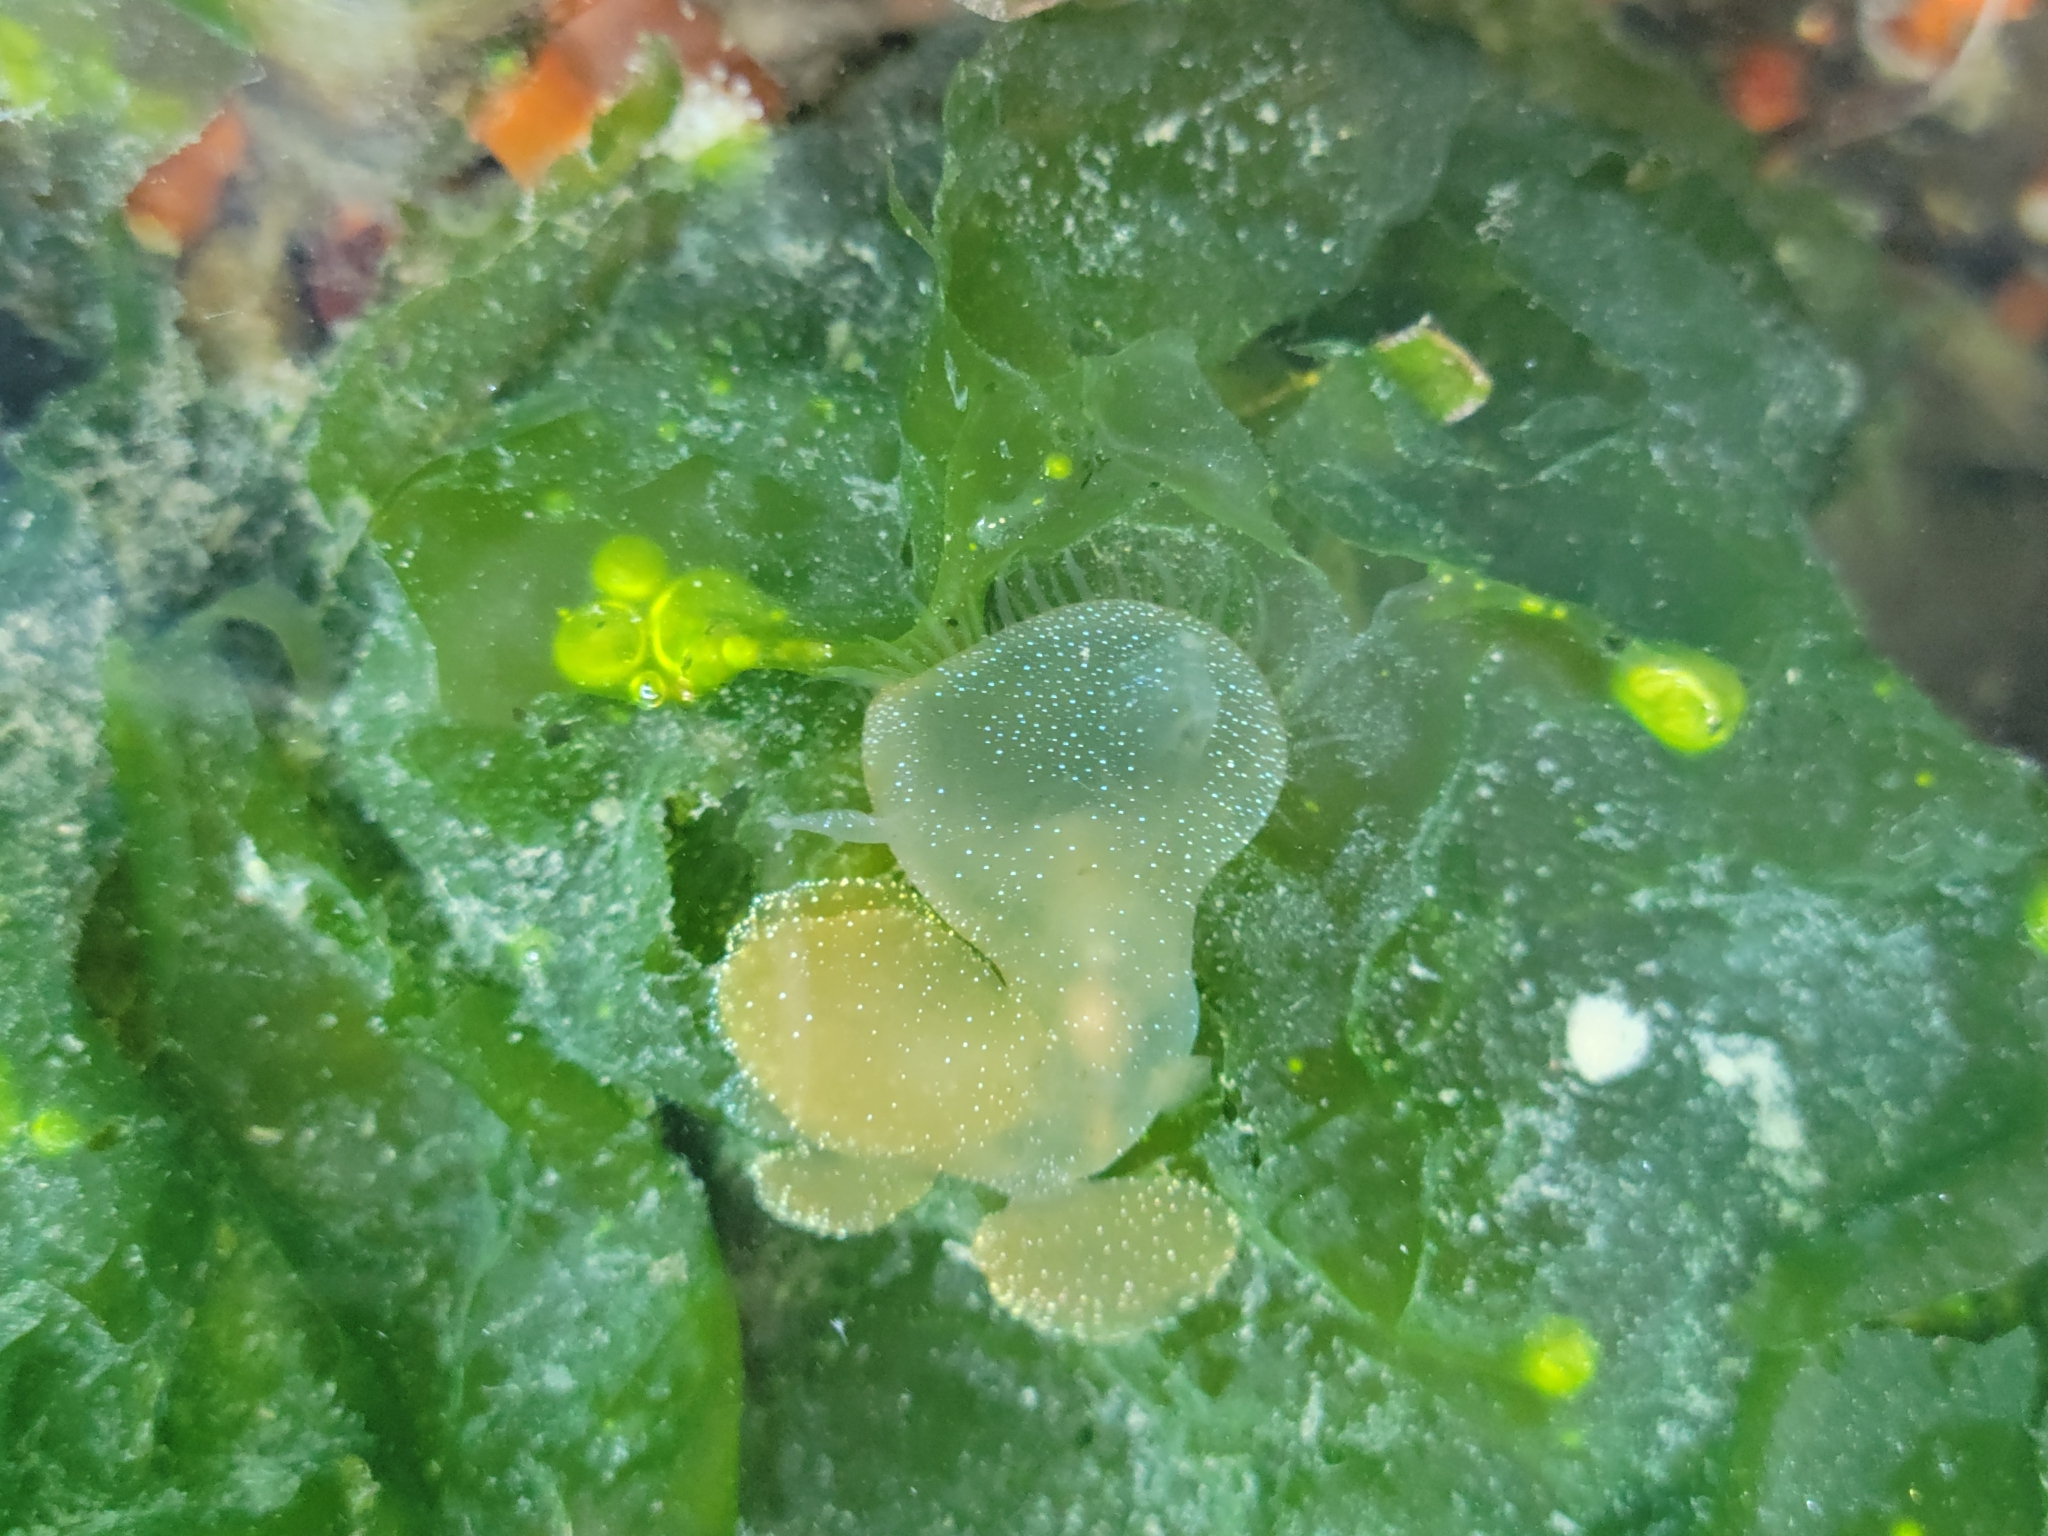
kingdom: Animalia
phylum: Mollusca
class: Gastropoda
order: Nudibranchia
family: Tethydidae
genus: Melibe
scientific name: Melibe leonina
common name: Lion nudibranch
